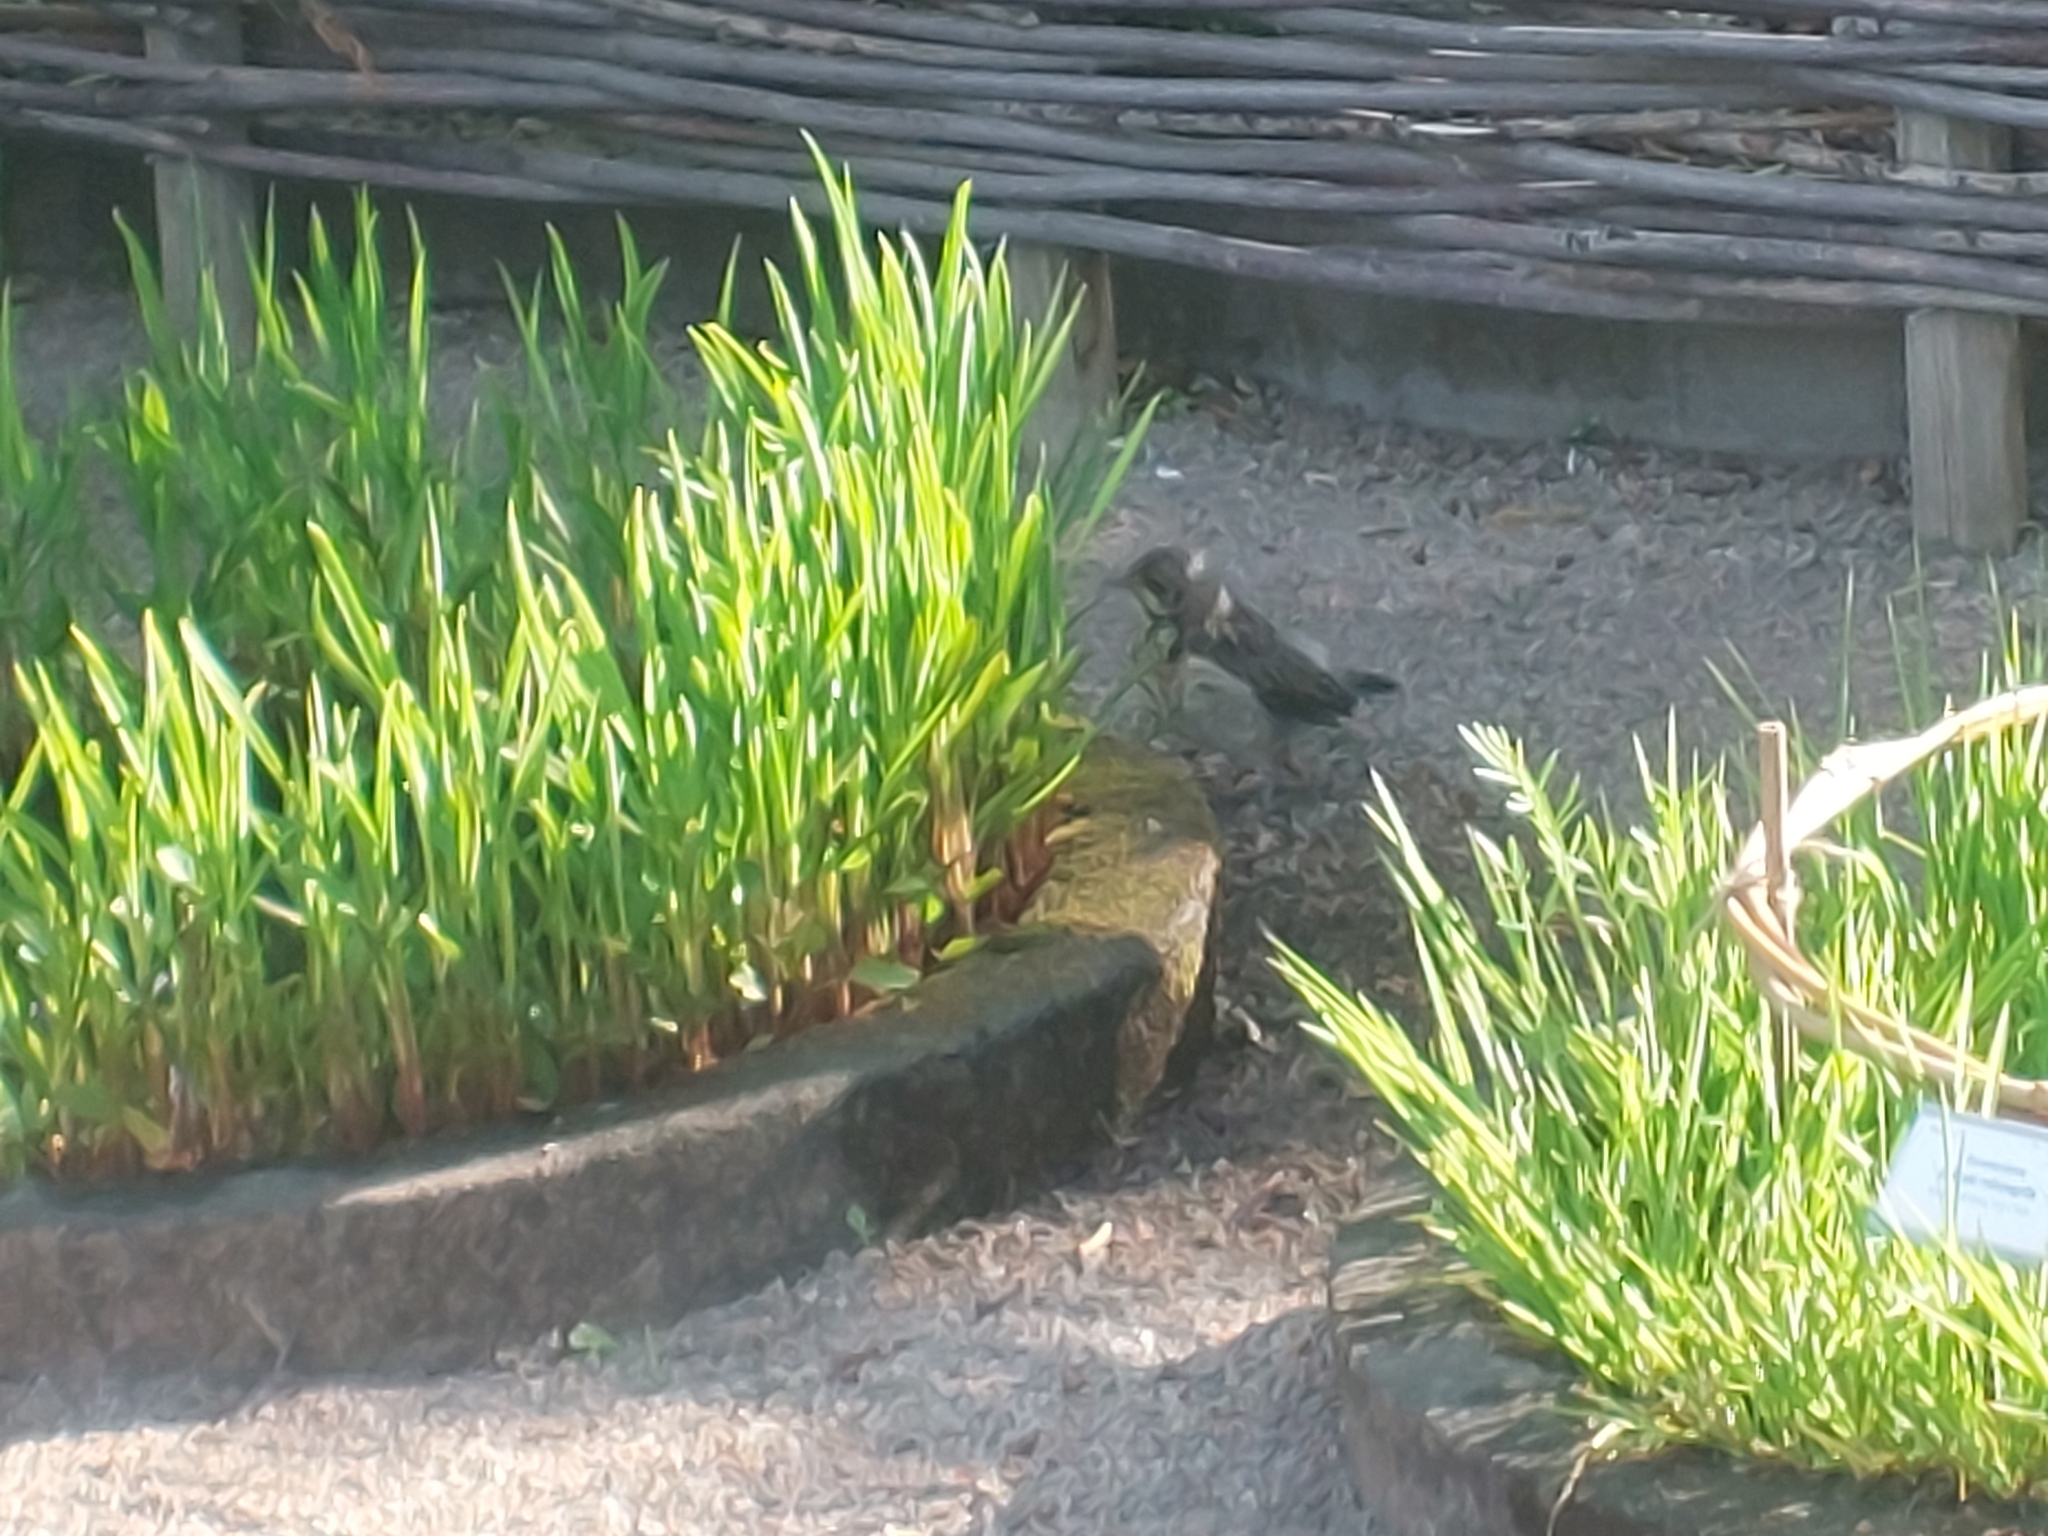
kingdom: Animalia
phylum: Chordata
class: Aves
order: Passeriformes
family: Turdidae
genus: Turdus
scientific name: Turdus pilaris
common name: Fieldfare
